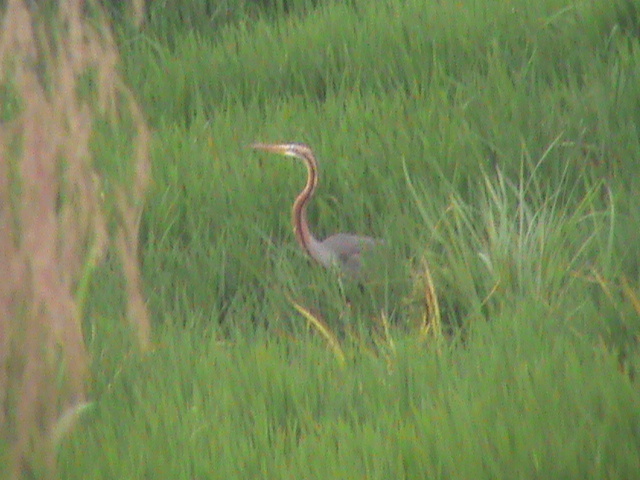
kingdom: Animalia
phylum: Chordata
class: Aves
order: Pelecaniformes
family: Ardeidae
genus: Ardea
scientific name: Ardea purpurea
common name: Purple heron
